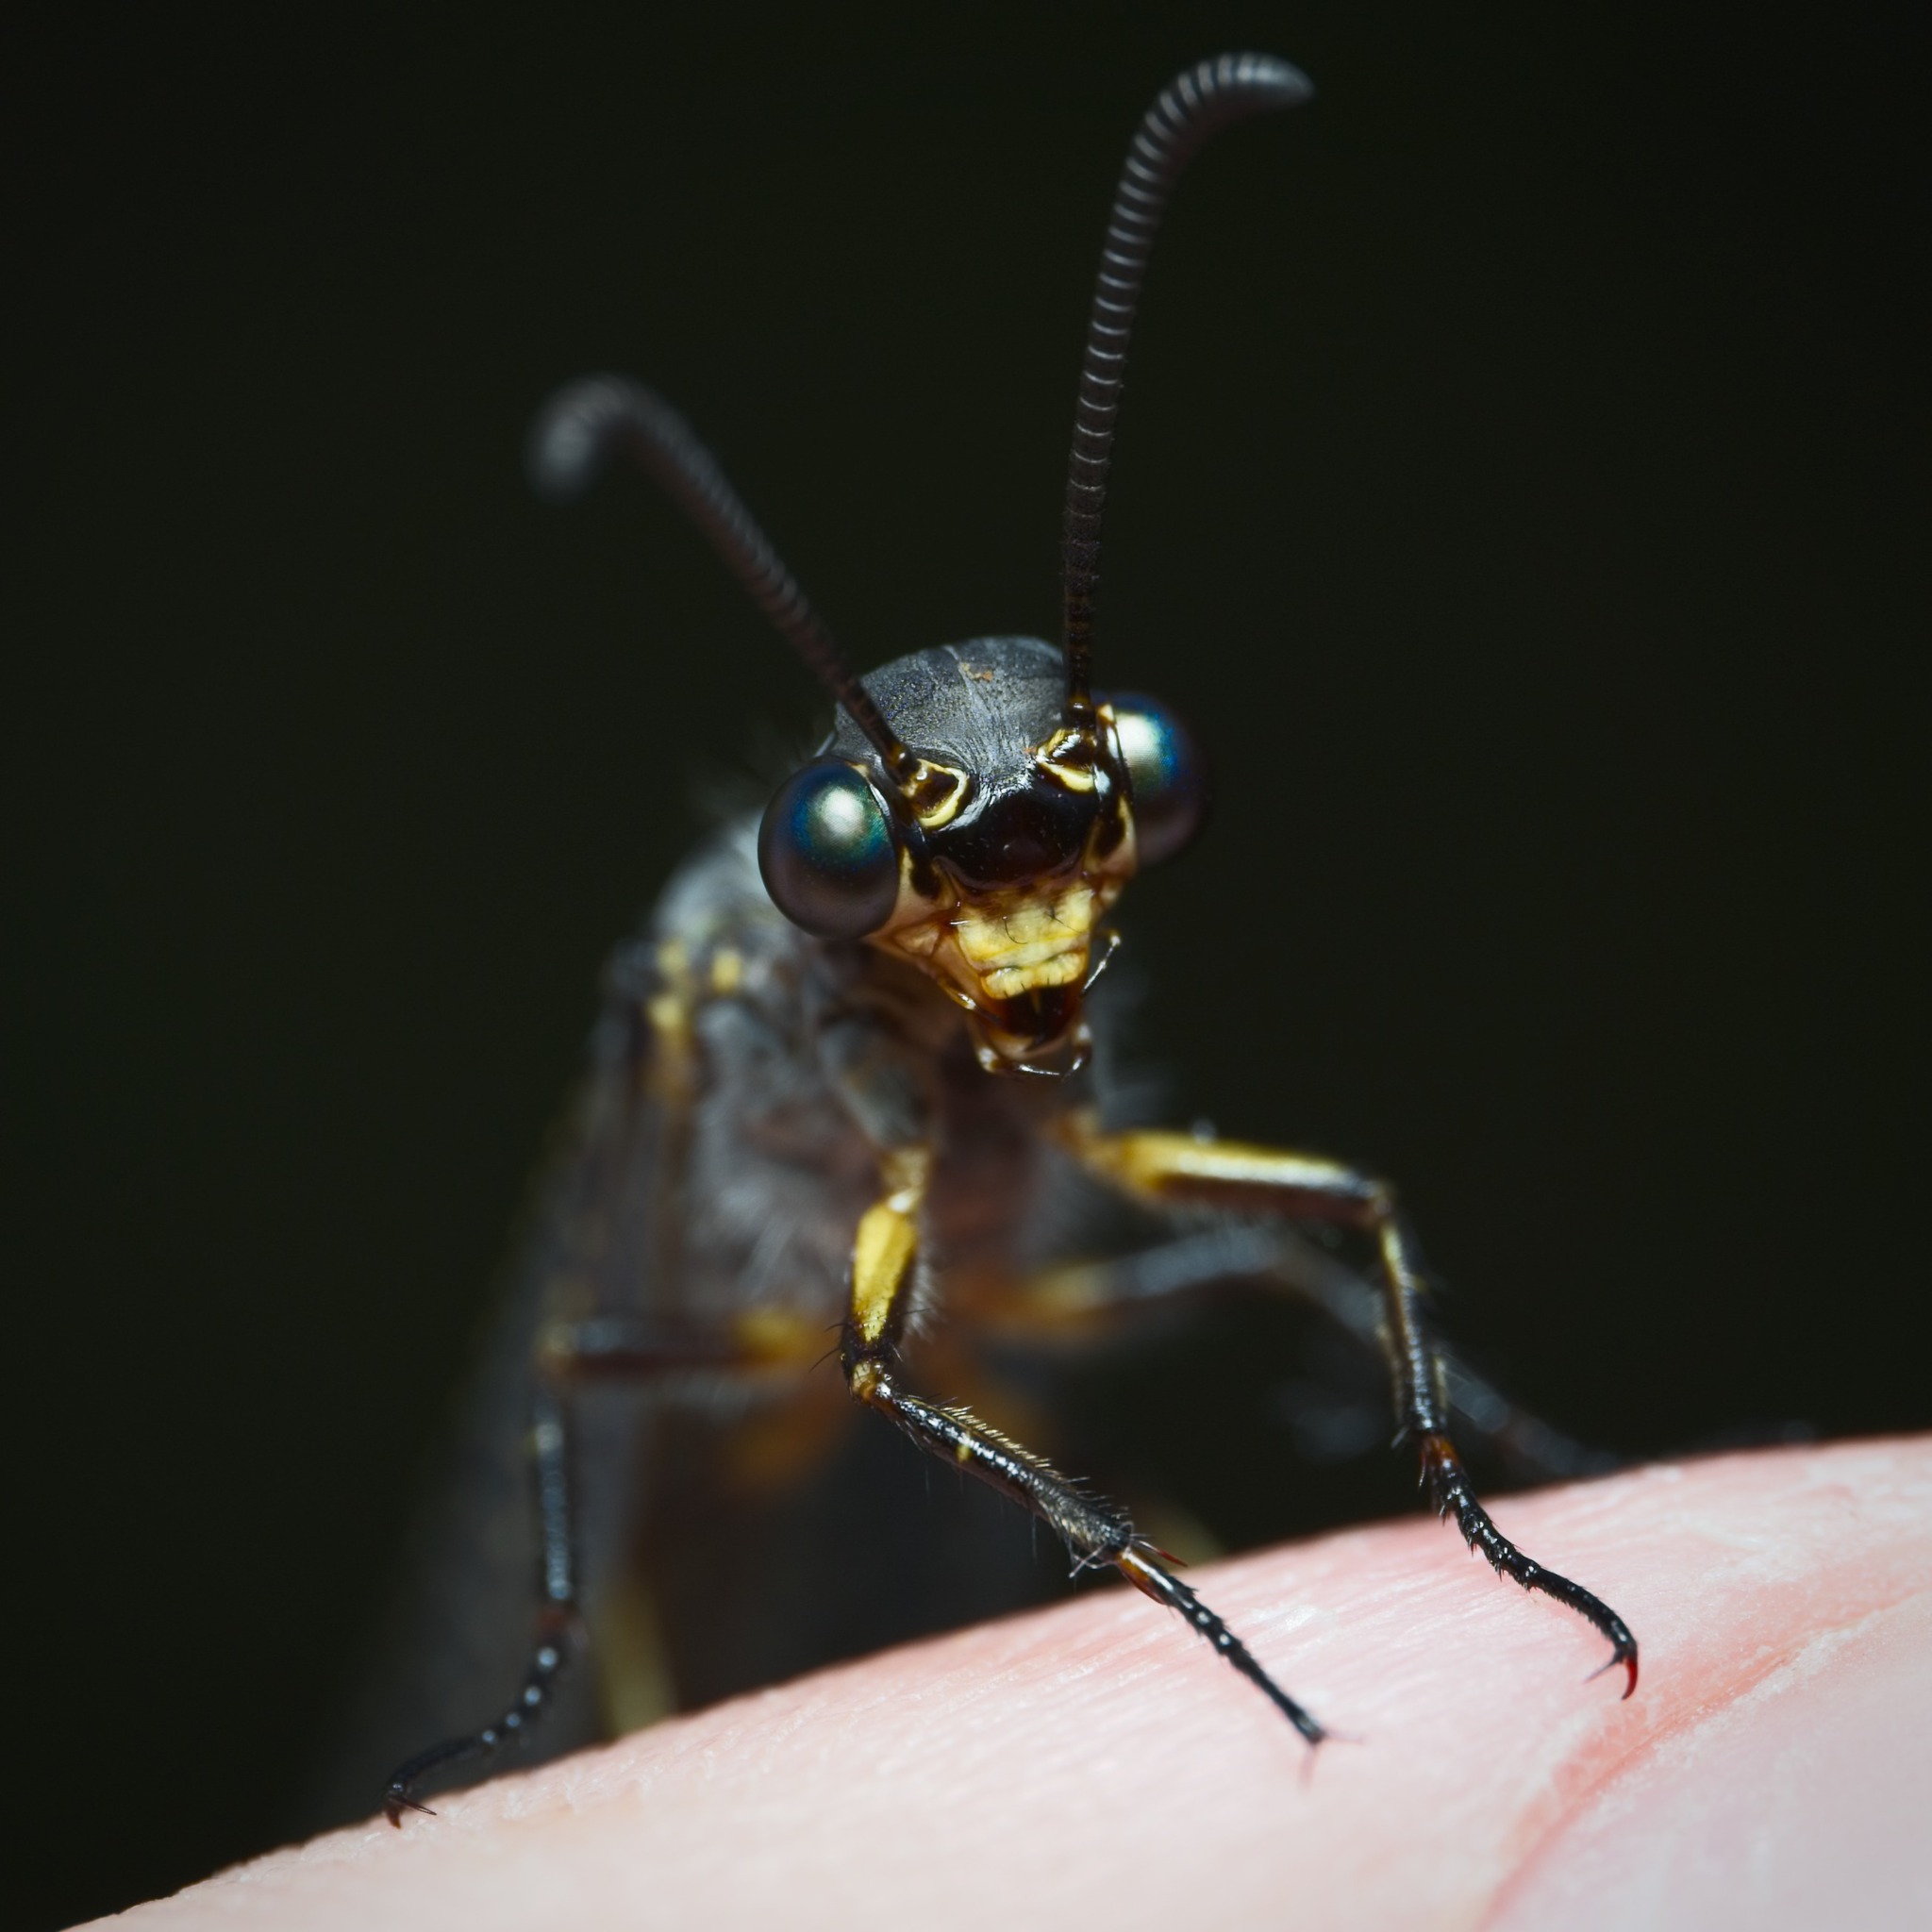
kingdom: Animalia
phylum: Arthropoda
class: Insecta
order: Neuroptera
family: Myrmeleontidae
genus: Weeleus
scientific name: Weeleus acutus
